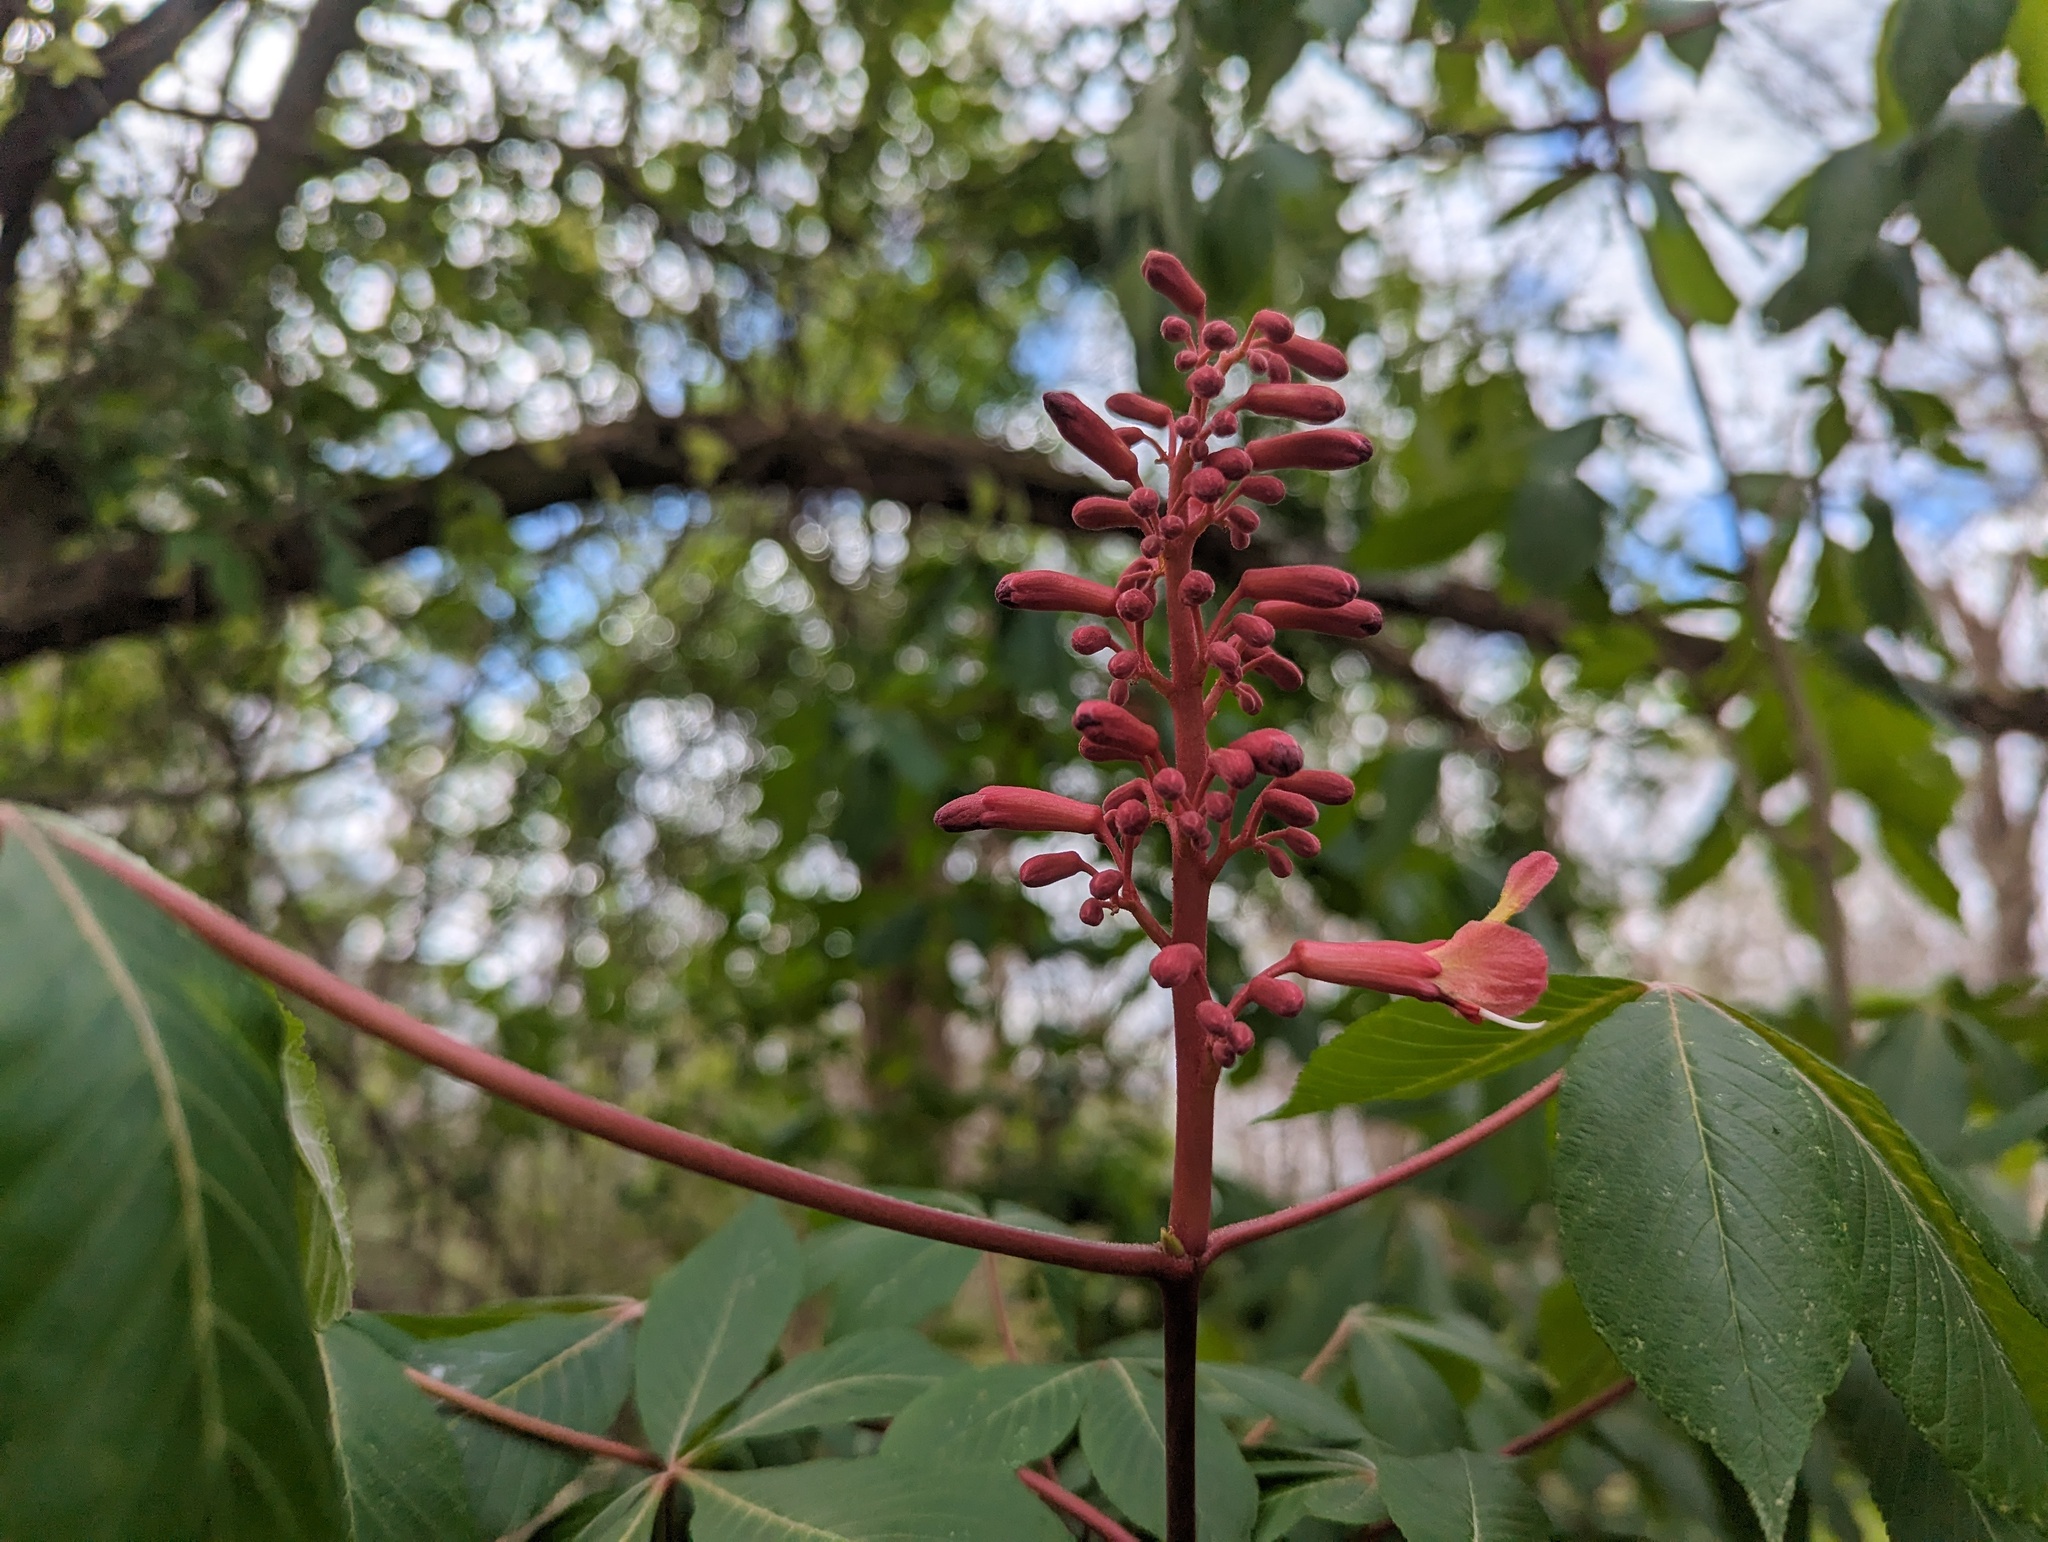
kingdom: Plantae
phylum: Tracheophyta
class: Magnoliopsida
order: Sapindales
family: Sapindaceae
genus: Aesculus
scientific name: Aesculus pavia
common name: Red buckeye
